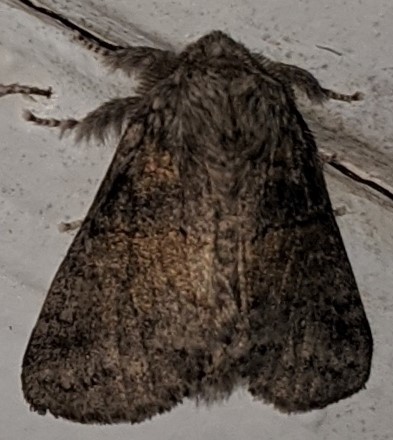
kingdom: Animalia
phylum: Arthropoda
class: Insecta
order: Lepidoptera
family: Notodontidae
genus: Gluphisia
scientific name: Gluphisia septentrionis
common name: Common gluphisia
